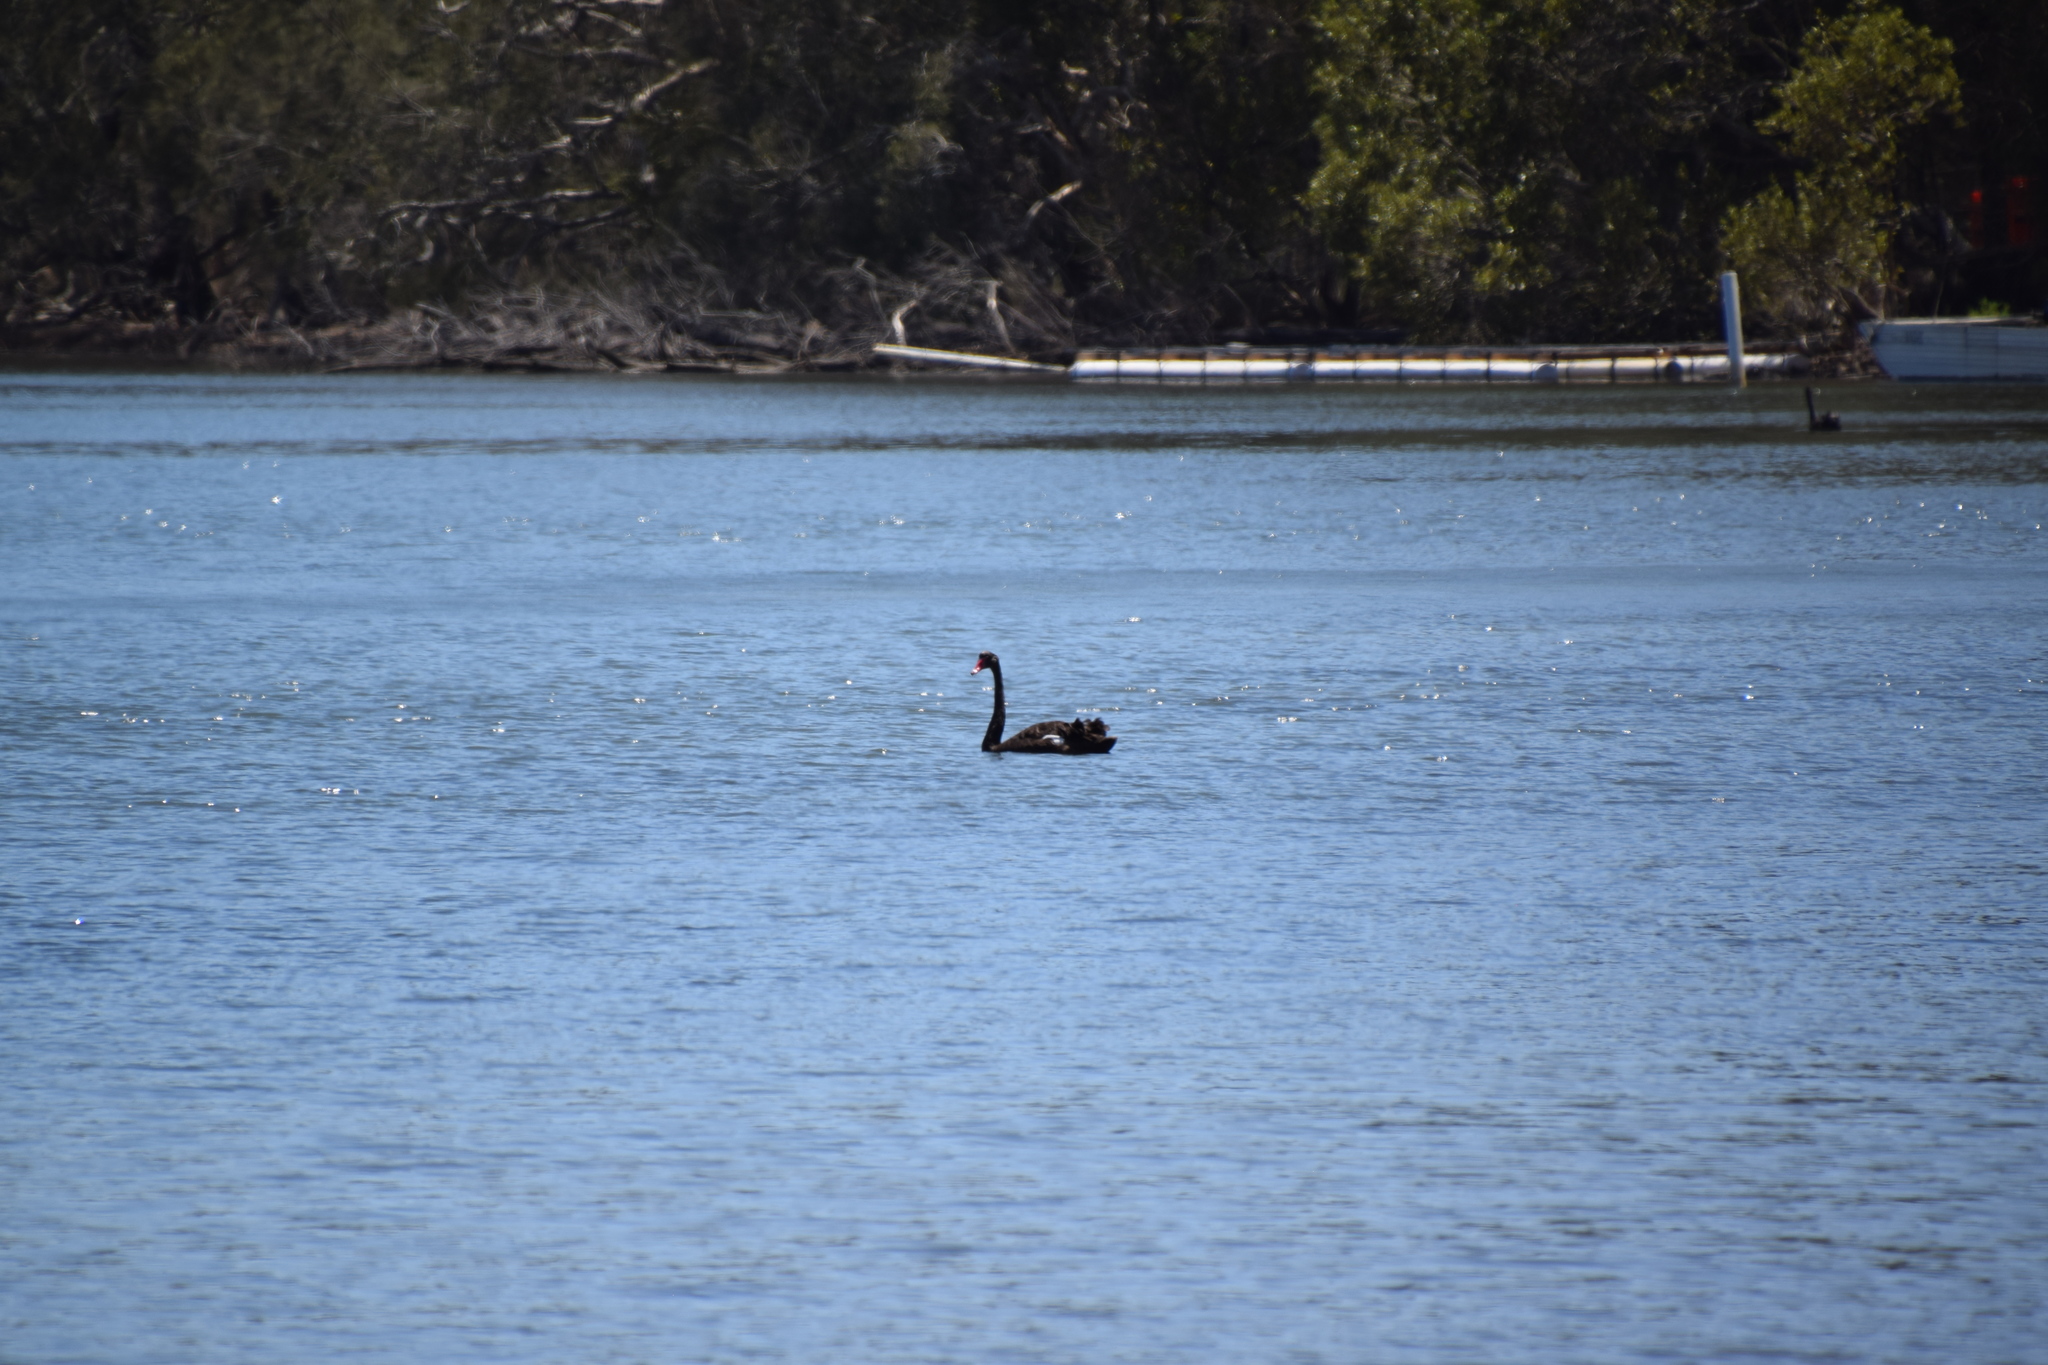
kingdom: Animalia
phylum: Chordata
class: Aves
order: Anseriformes
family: Anatidae
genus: Cygnus
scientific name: Cygnus atratus
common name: Black swan
